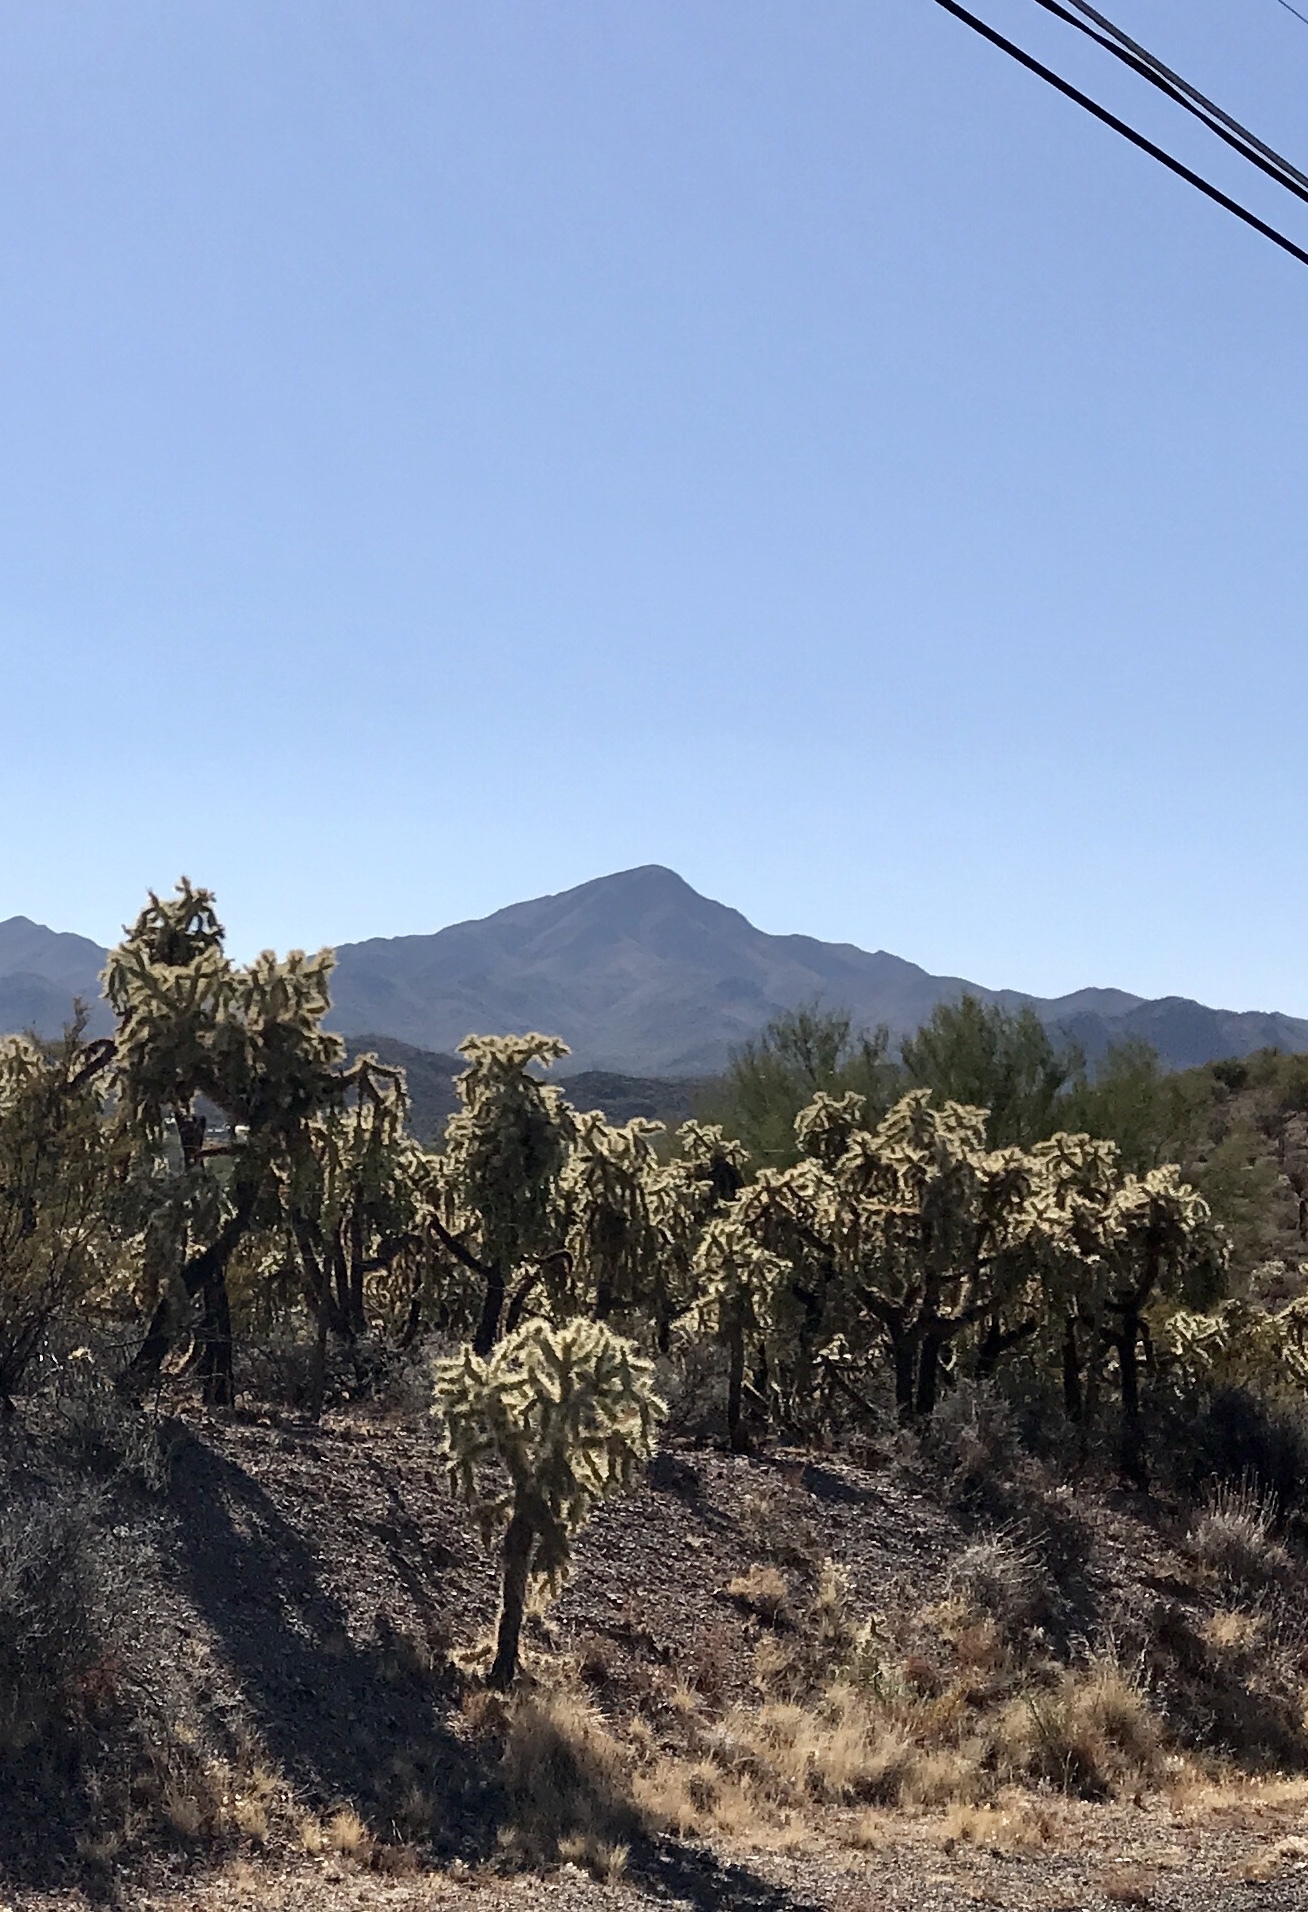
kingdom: Plantae
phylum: Tracheophyta
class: Magnoliopsida
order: Caryophyllales
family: Cactaceae
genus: Cylindropuntia
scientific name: Cylindropuntia fulgida
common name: Jumping cholla
